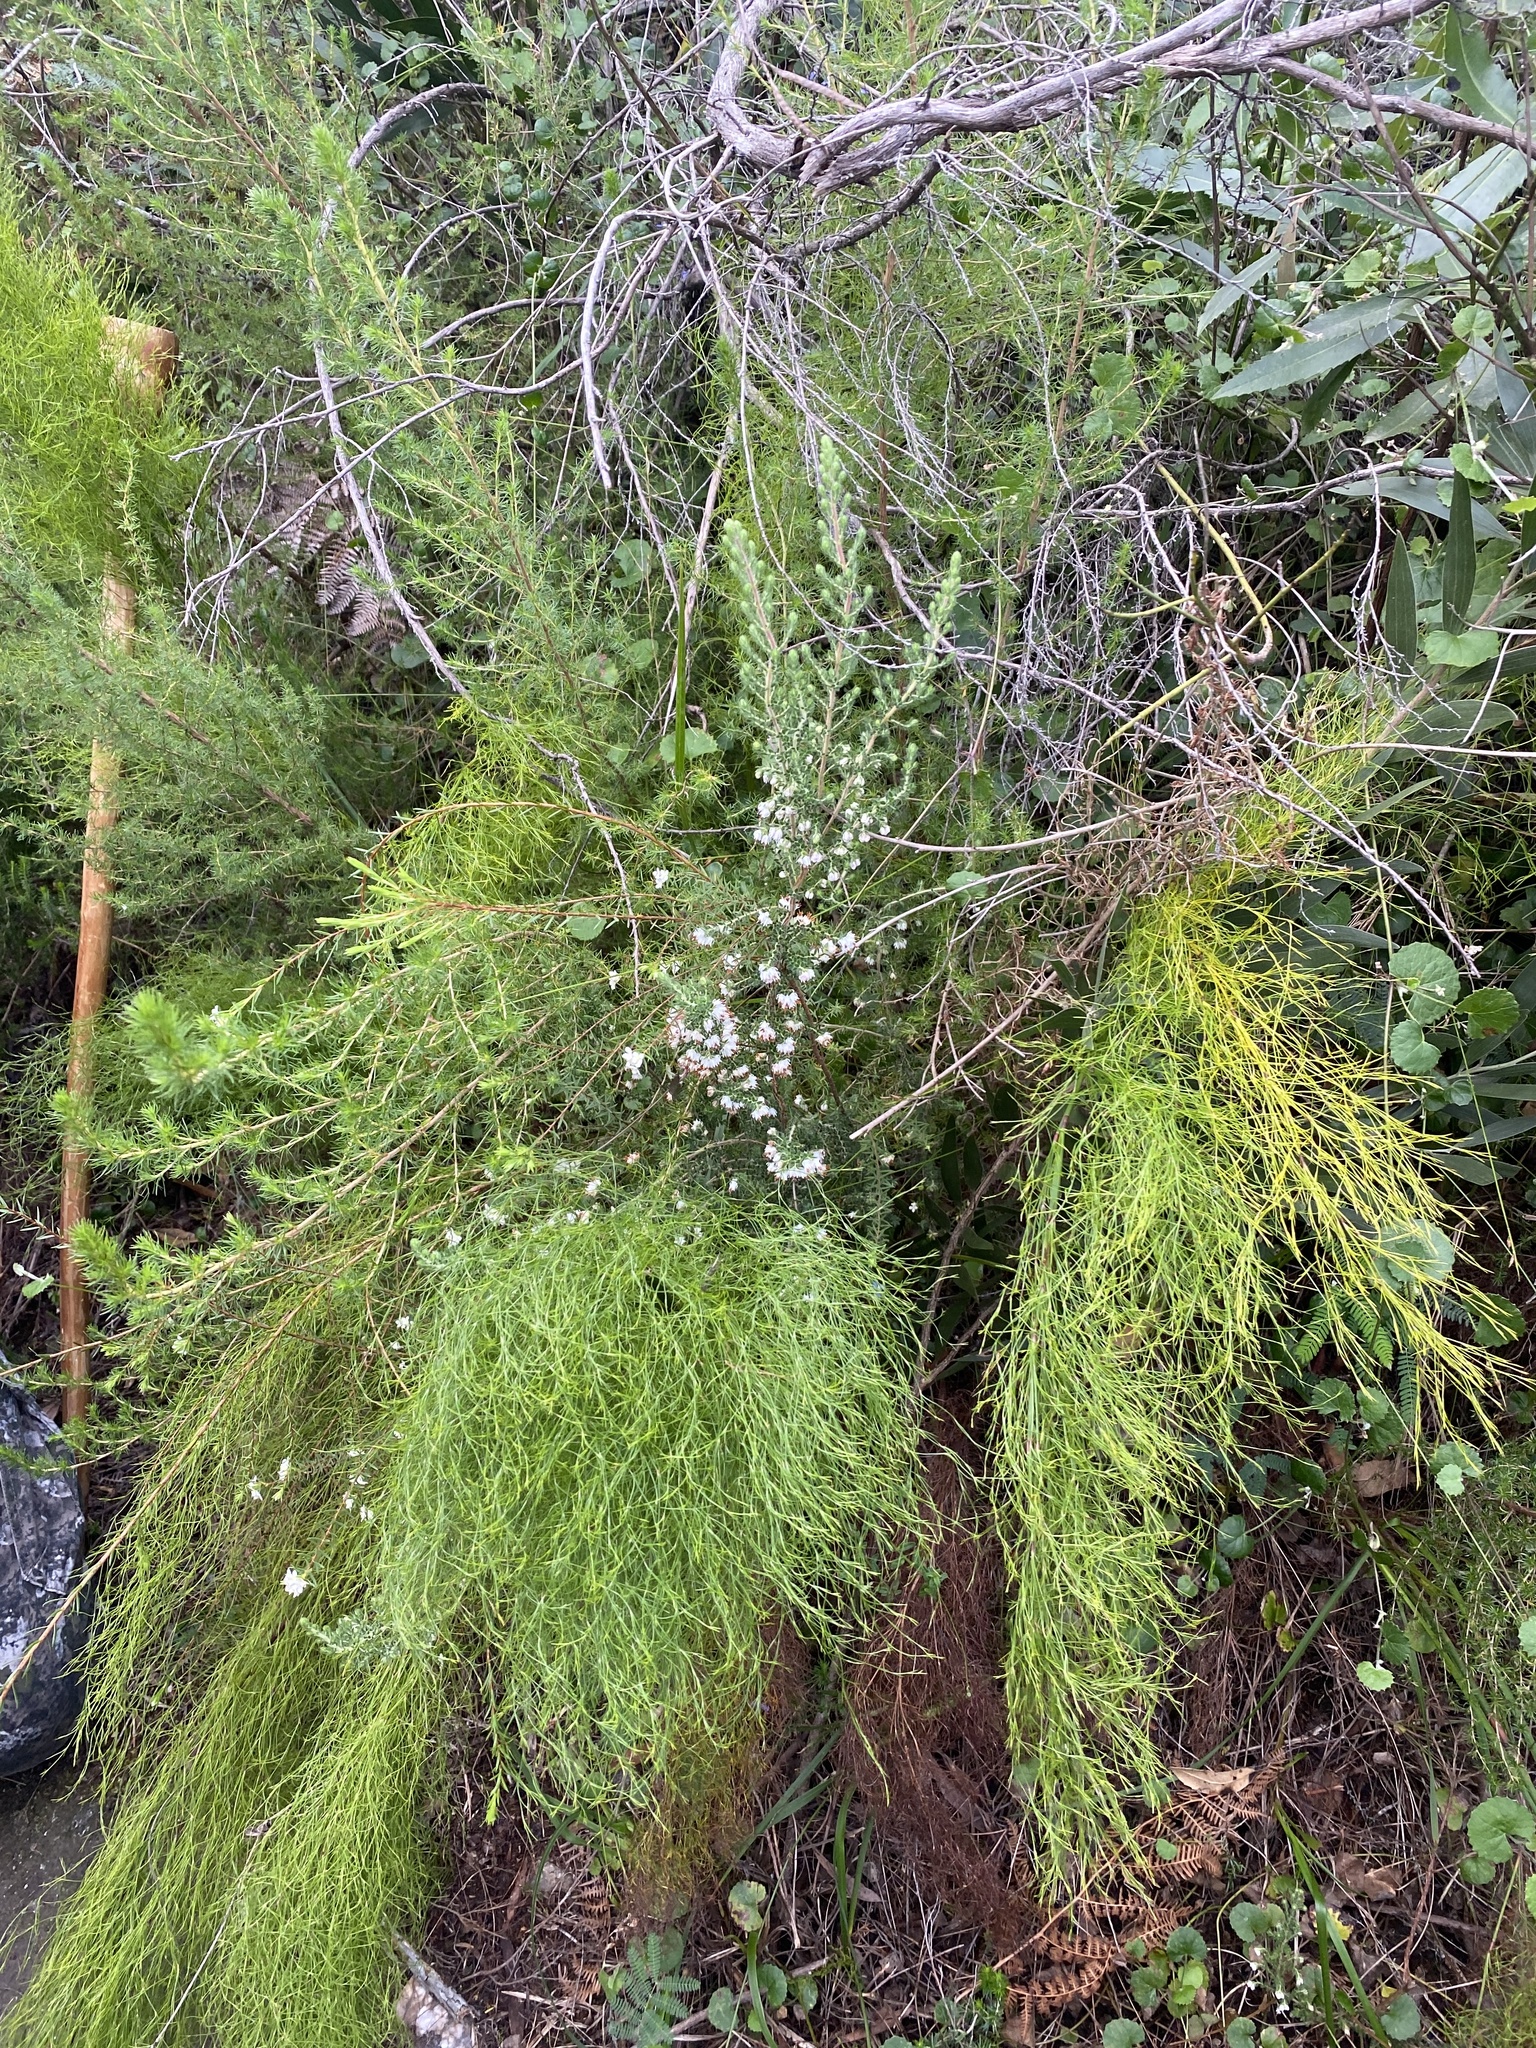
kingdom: Plantae
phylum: Tracheophyta
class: Magnoliopsida
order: Ericales
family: Ericaceae
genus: Erica
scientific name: Erica lehmannii
